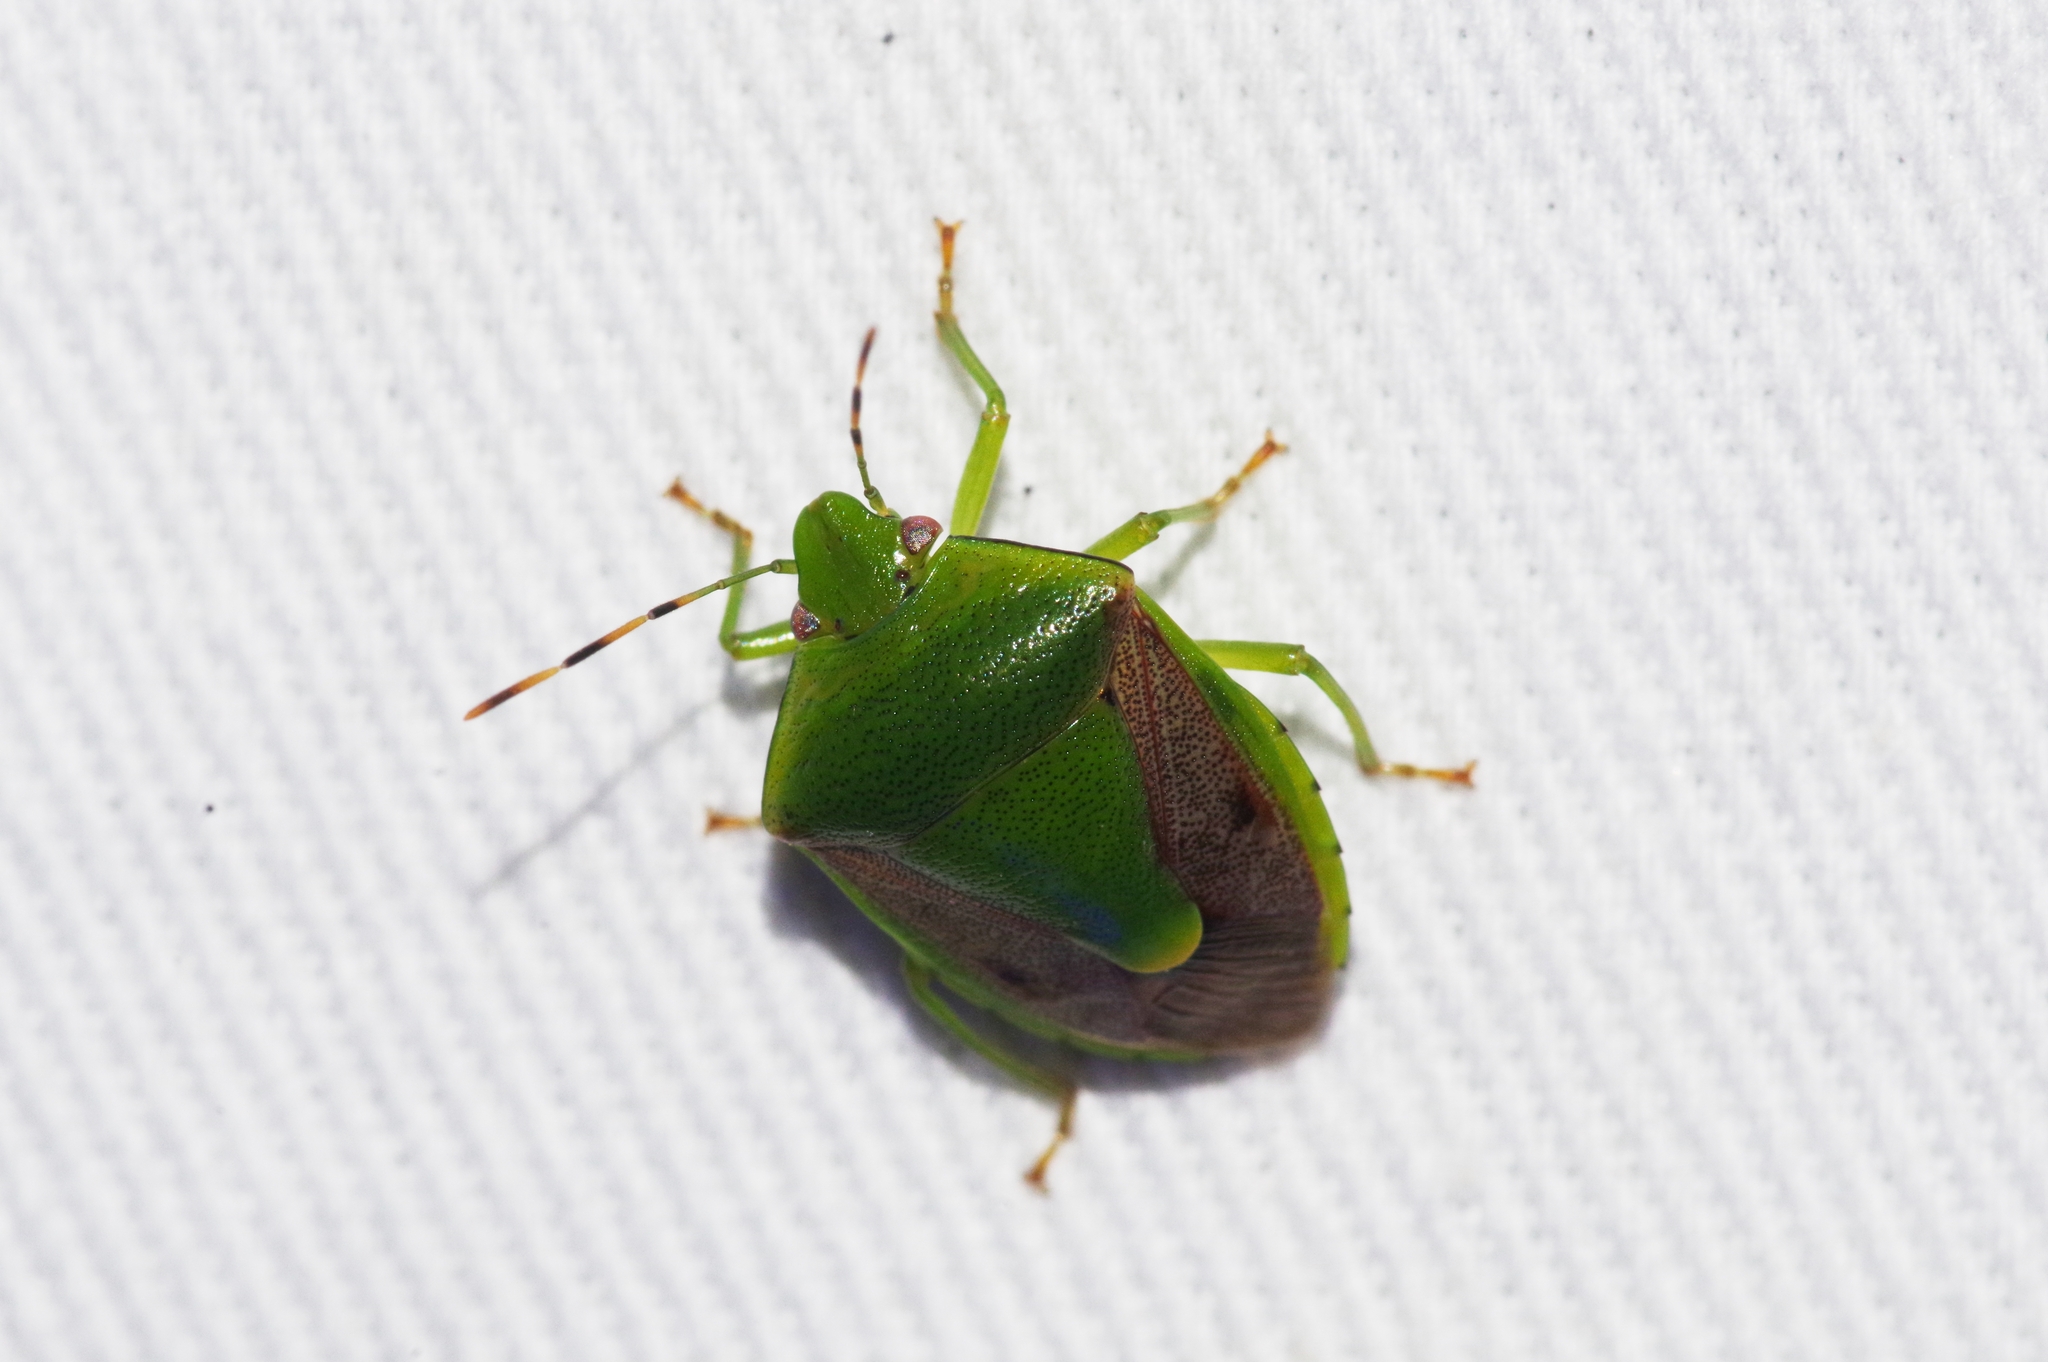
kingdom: Animalia
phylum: Arthropoda
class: Insecta
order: Hemiptera
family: Pentatomidae
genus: Plautia
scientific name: Plautia stali
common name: Stink bug
